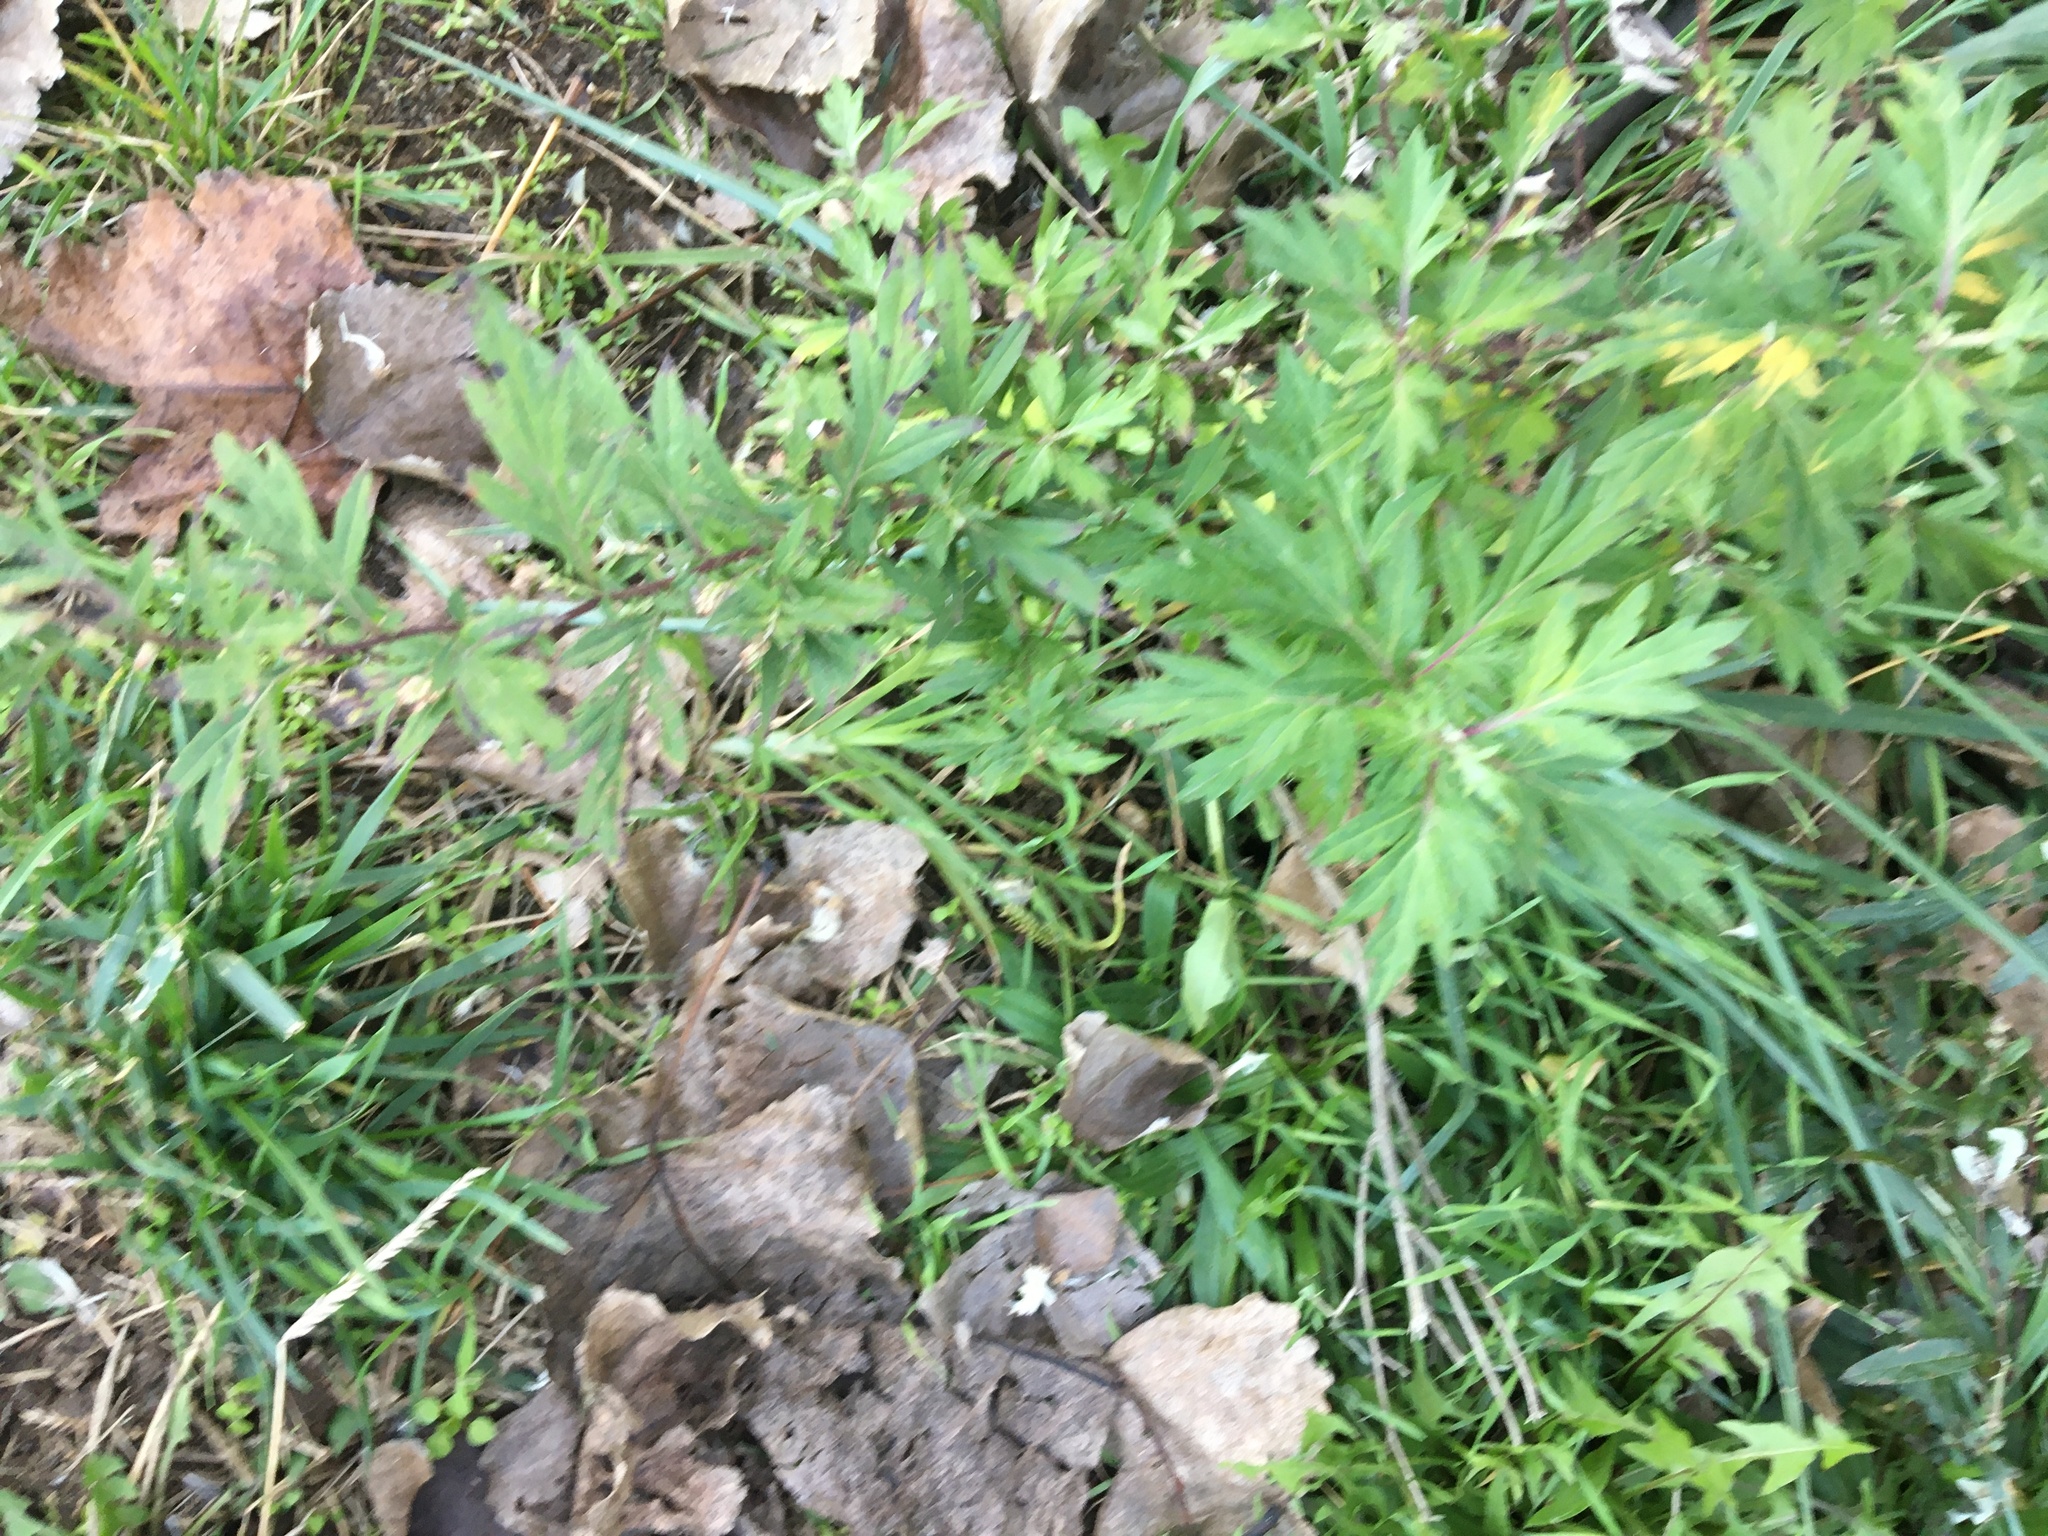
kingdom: Plantae
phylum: Tracheophyta
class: Magnoliopsida
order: Asterales
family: Asteraceae
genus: Artemisia
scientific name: Artemisia vulgaris
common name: Mugwort
